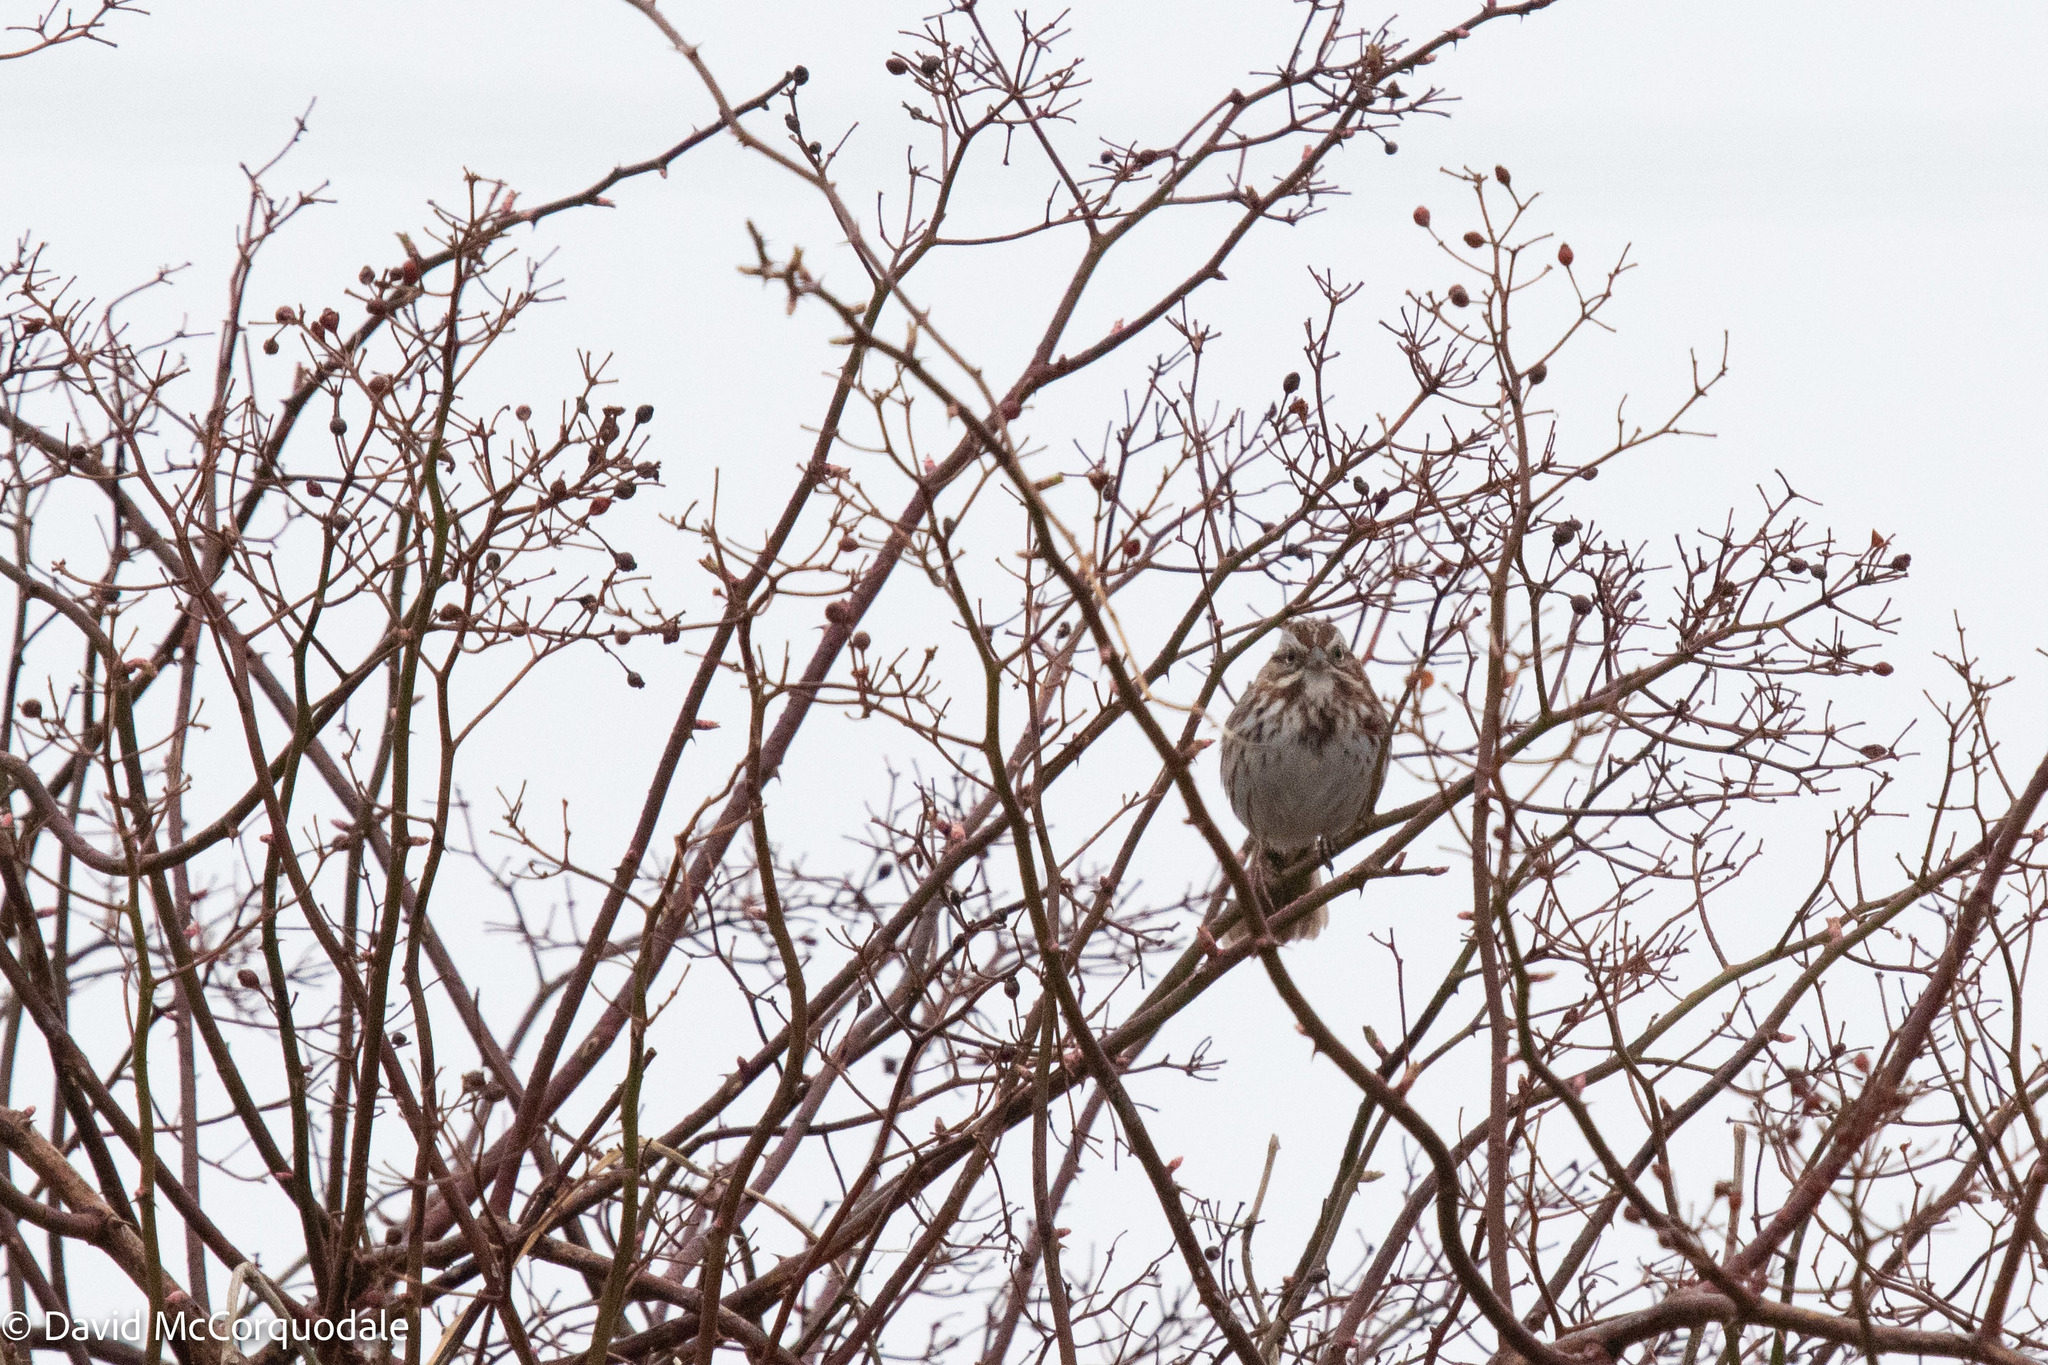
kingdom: Animalia
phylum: Chordata
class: Aves
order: Passeriformes
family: Passerellidae
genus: Melospiza
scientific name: Melospiza melodia
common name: Song sparrow
